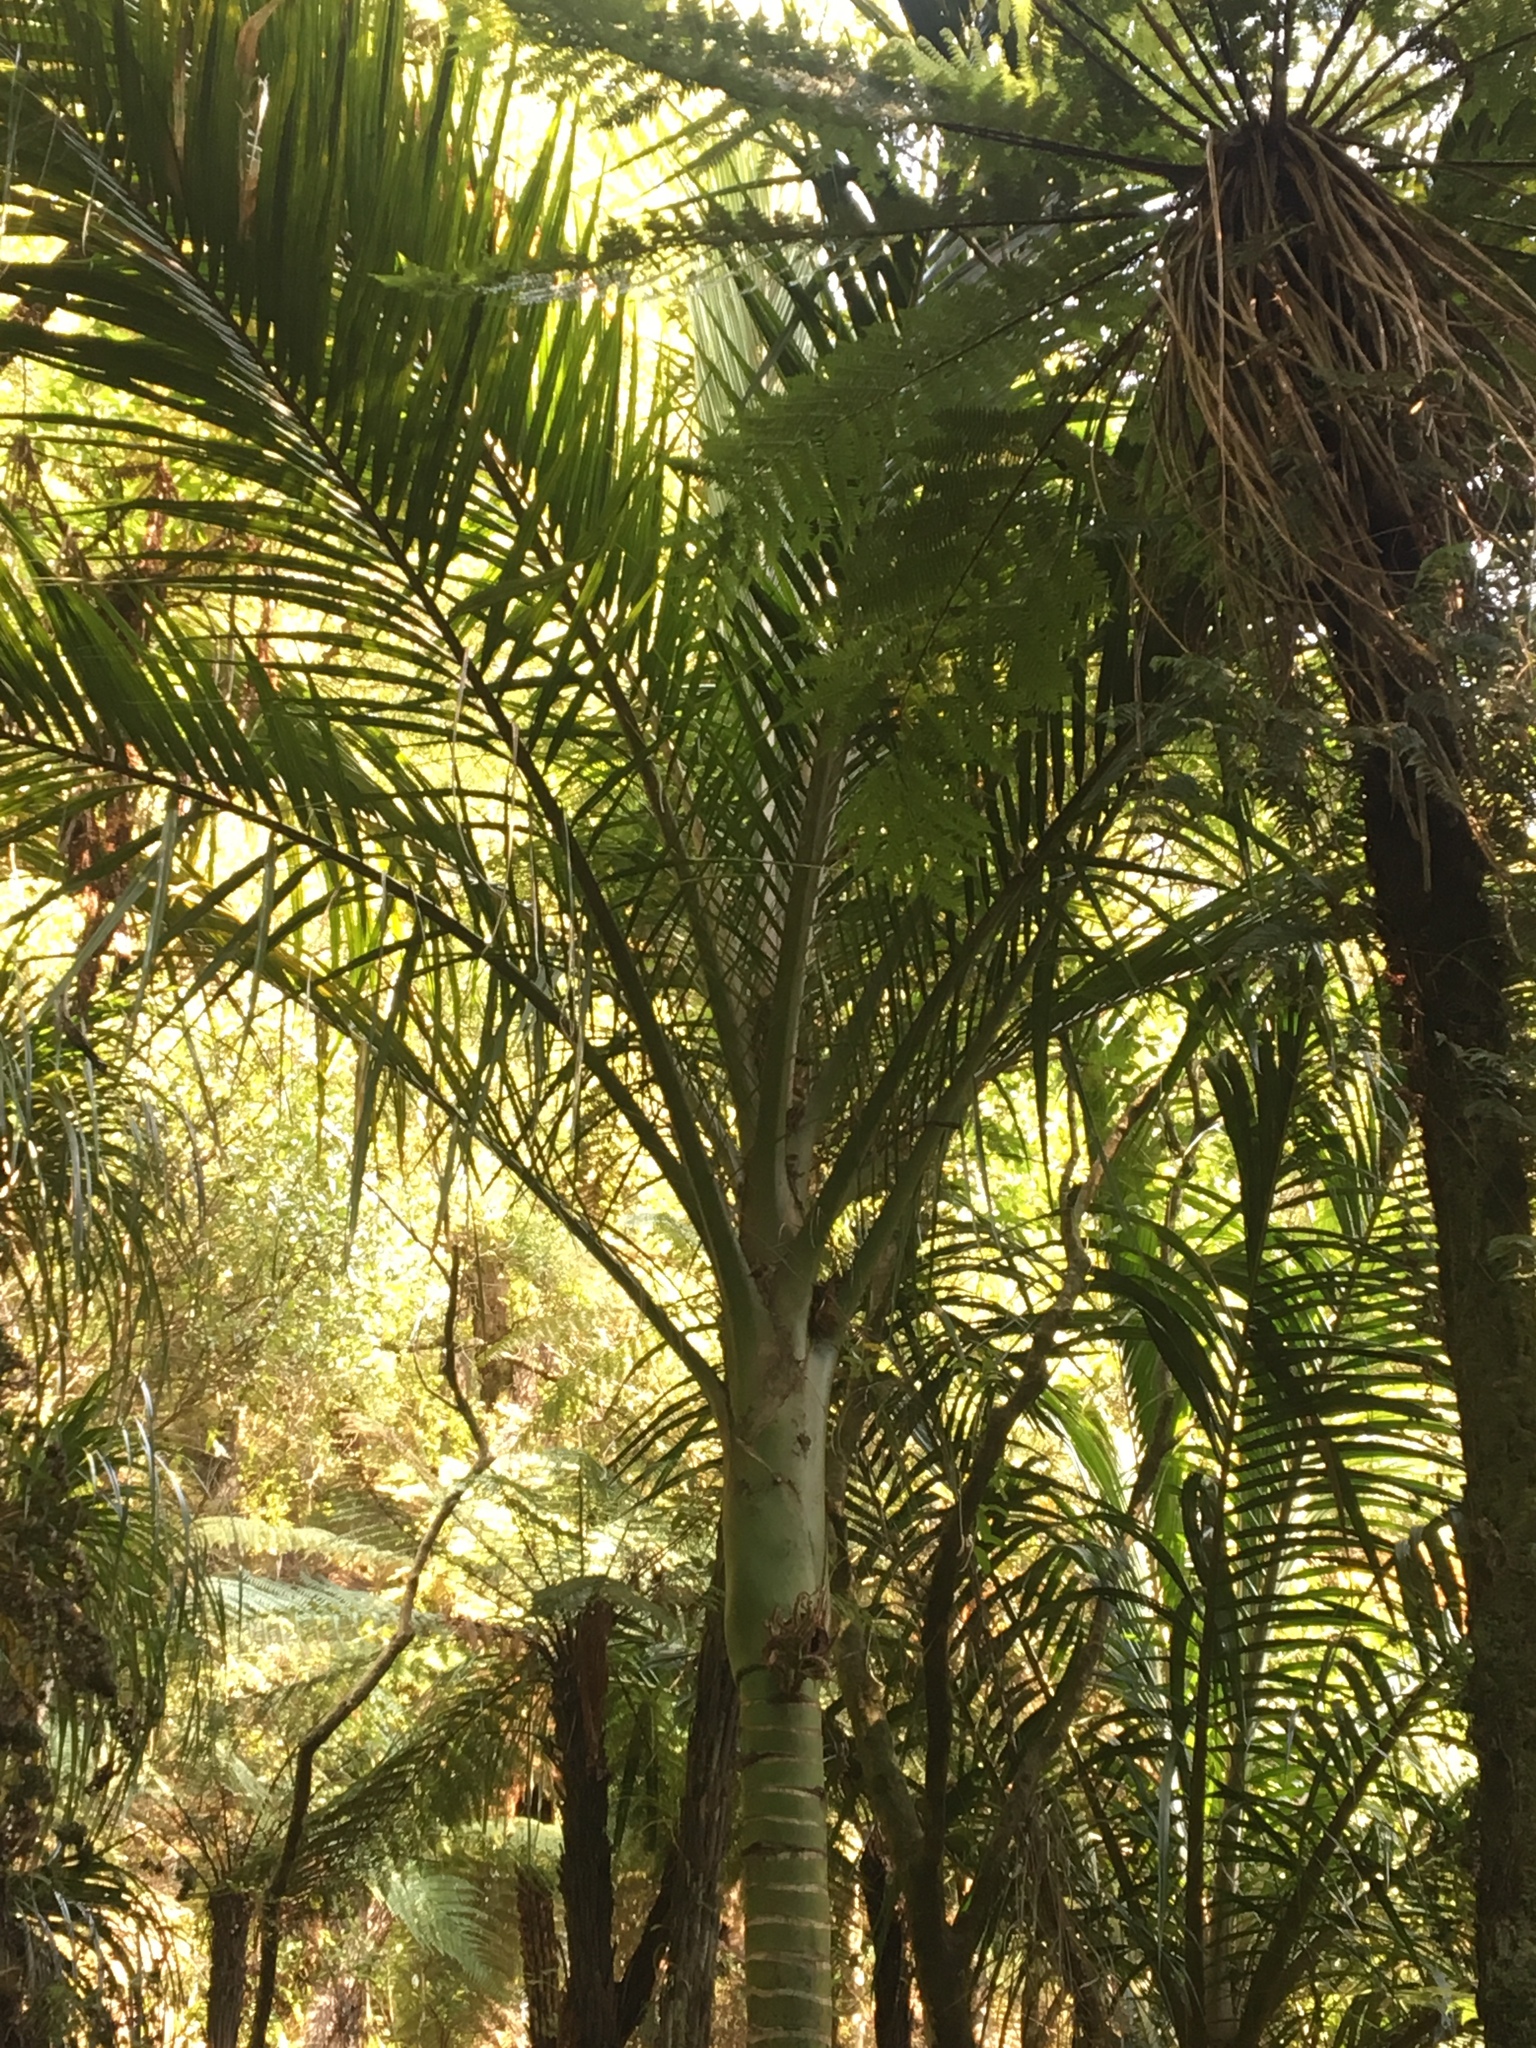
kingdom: Plantae
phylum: Tracheophyta
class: Liliopsida
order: Arecales
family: Arecaceae
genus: Rhopalostylis
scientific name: Rhopalostylis sapida
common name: Feather-duster palm
